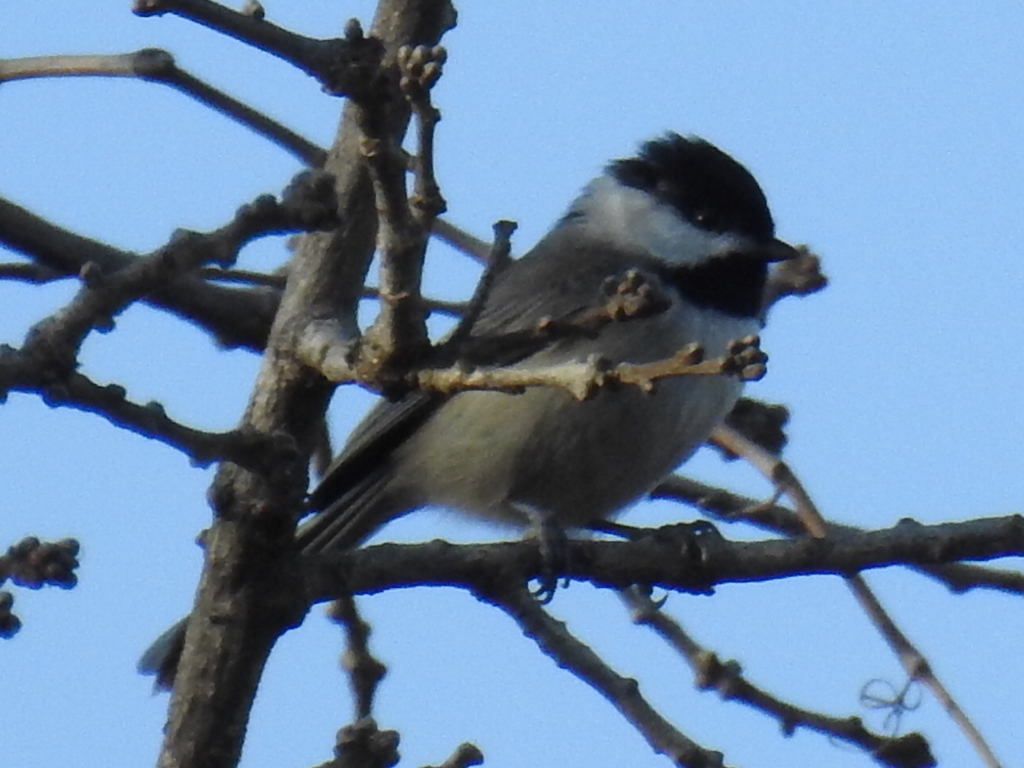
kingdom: Animalia
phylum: Chordata
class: Aves
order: Passeriformes
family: Paridae
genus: Poecile
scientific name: Poecile carolinensis
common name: Carolina chickadee
